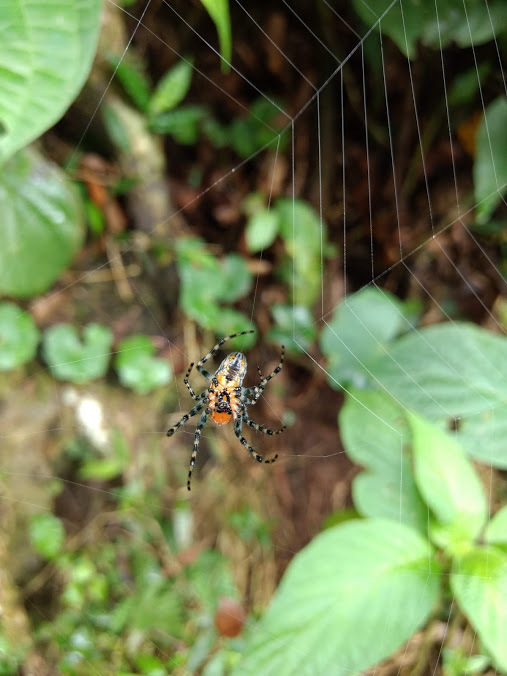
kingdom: Animalia
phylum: Arthropoda
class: Arachnida
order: Araneae
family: Araneidae
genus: Alpaida
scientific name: Alpaida grayi
